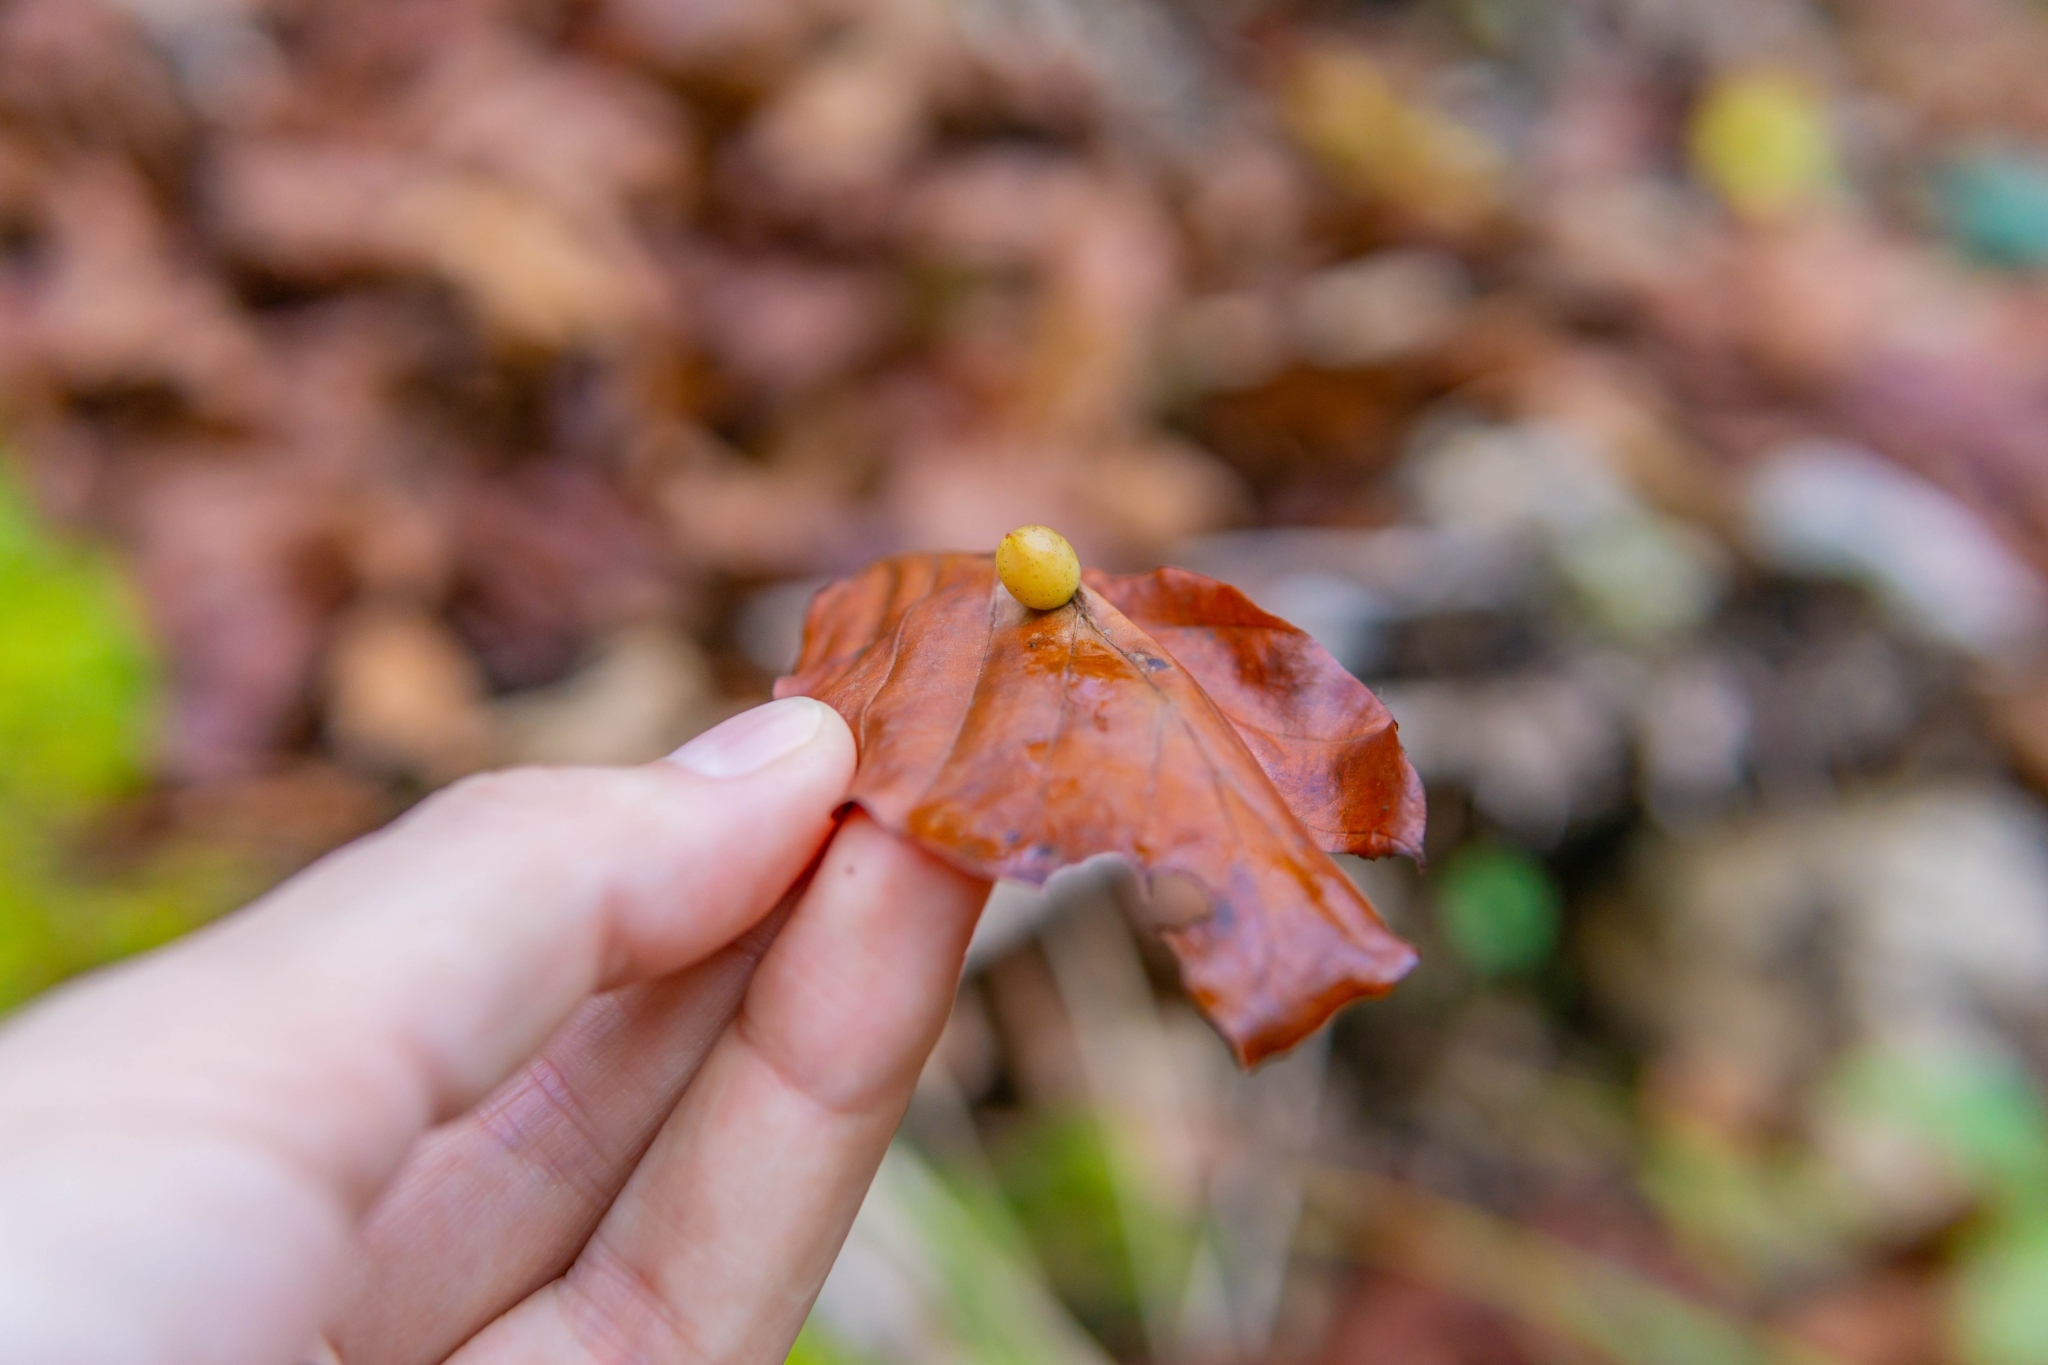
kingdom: Animalia
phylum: Arthropoda
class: Insecta
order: Diptera
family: Cecidomyiidae
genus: Mikiola
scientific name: Mikiola fagi
